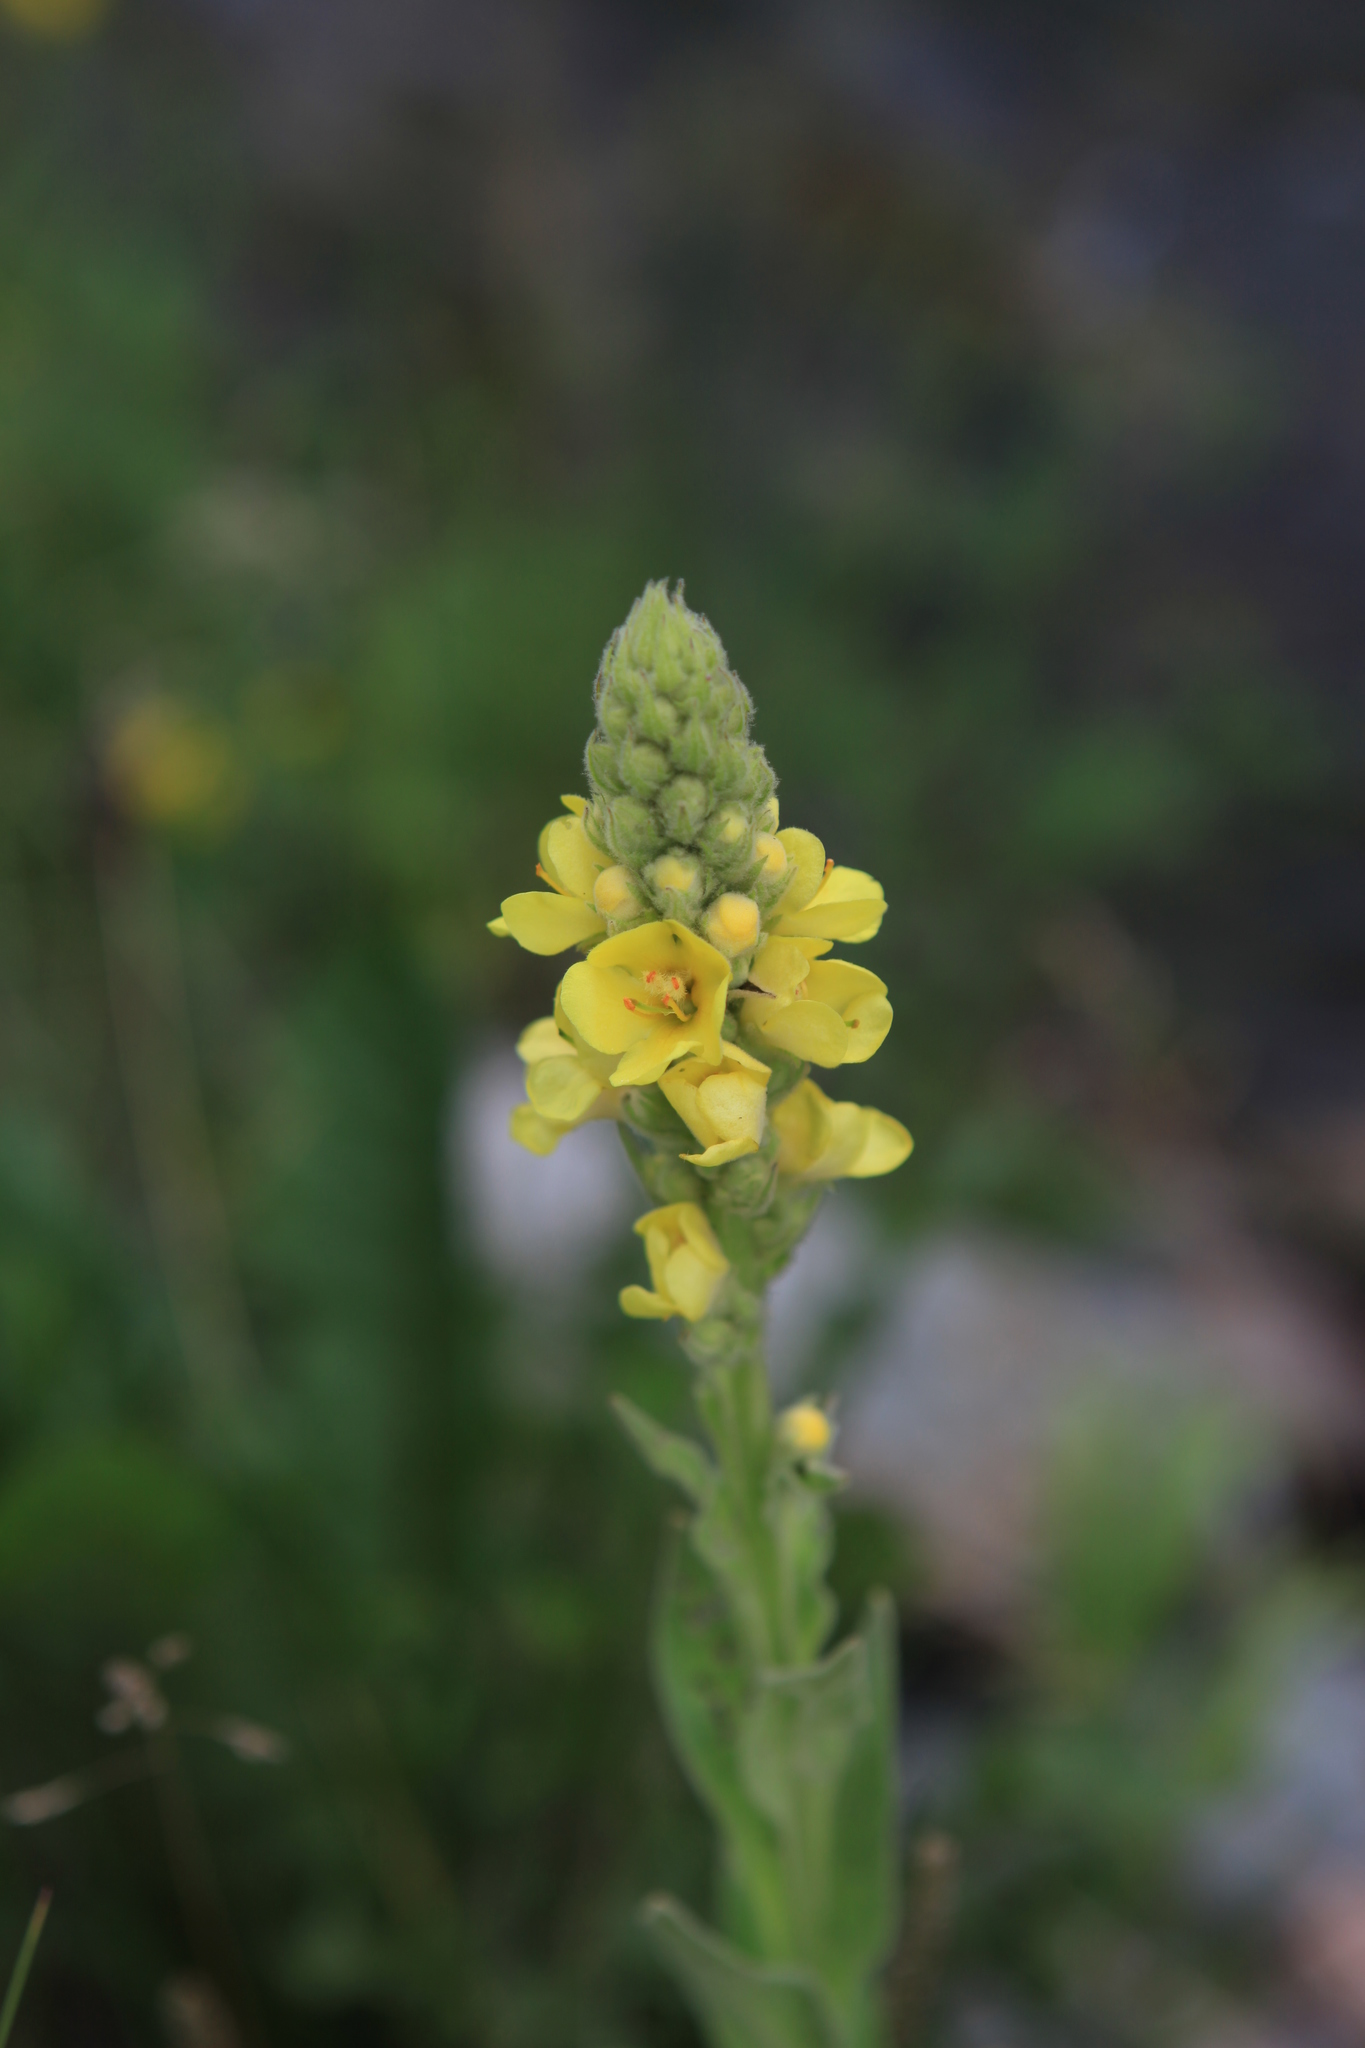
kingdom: Plantae
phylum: Tracheophyta
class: Magnoliopsida
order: Lamiales
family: Scrophulariaceae
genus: Verbascum
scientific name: Verbascum thapsus
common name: Common mullein
